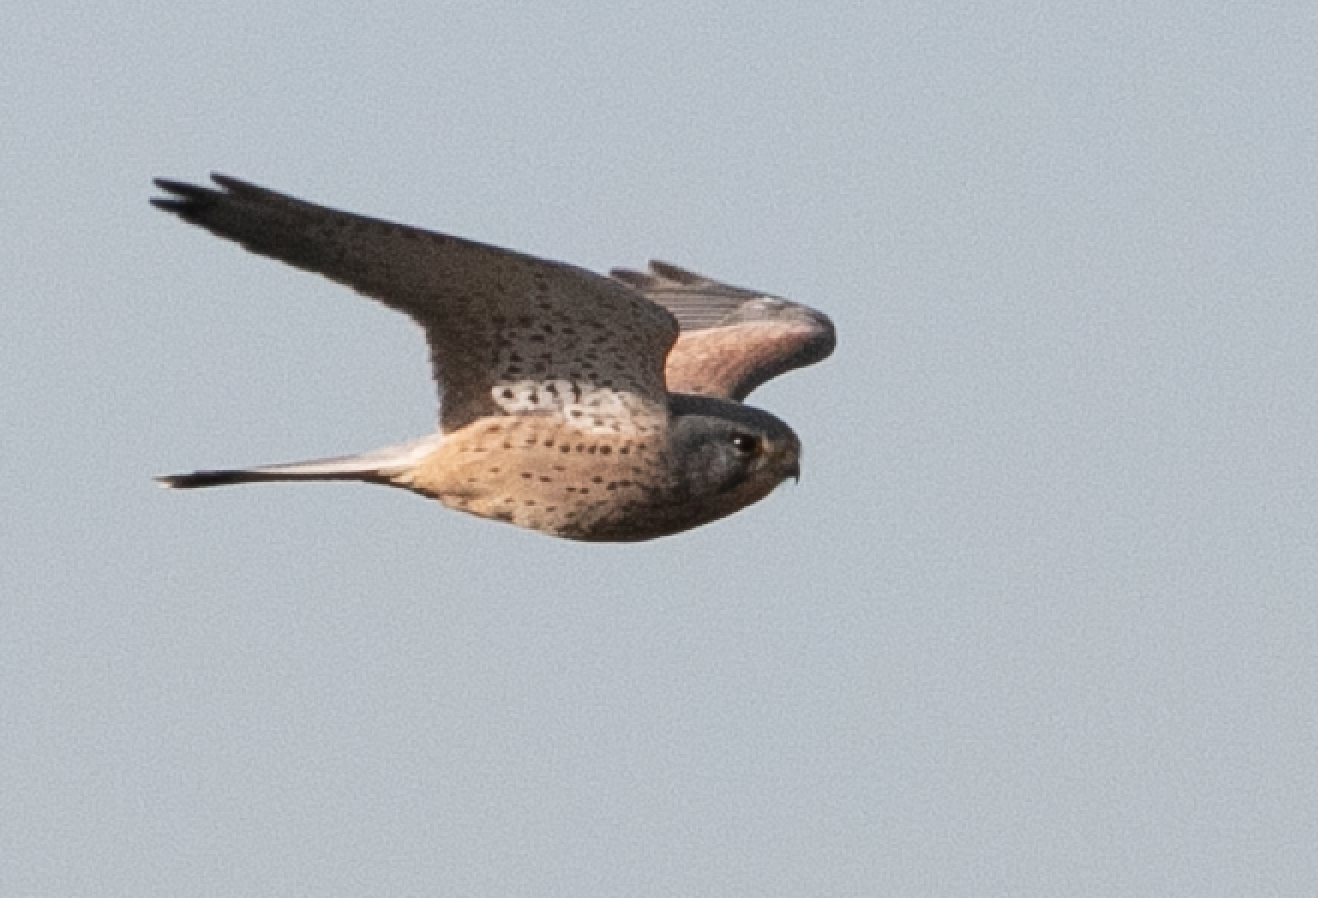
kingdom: Animalia
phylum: Chordata
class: Aves
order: Falconiformes
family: Falconidae
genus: Falco
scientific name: Falco tinnunculus
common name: Common kestrel
